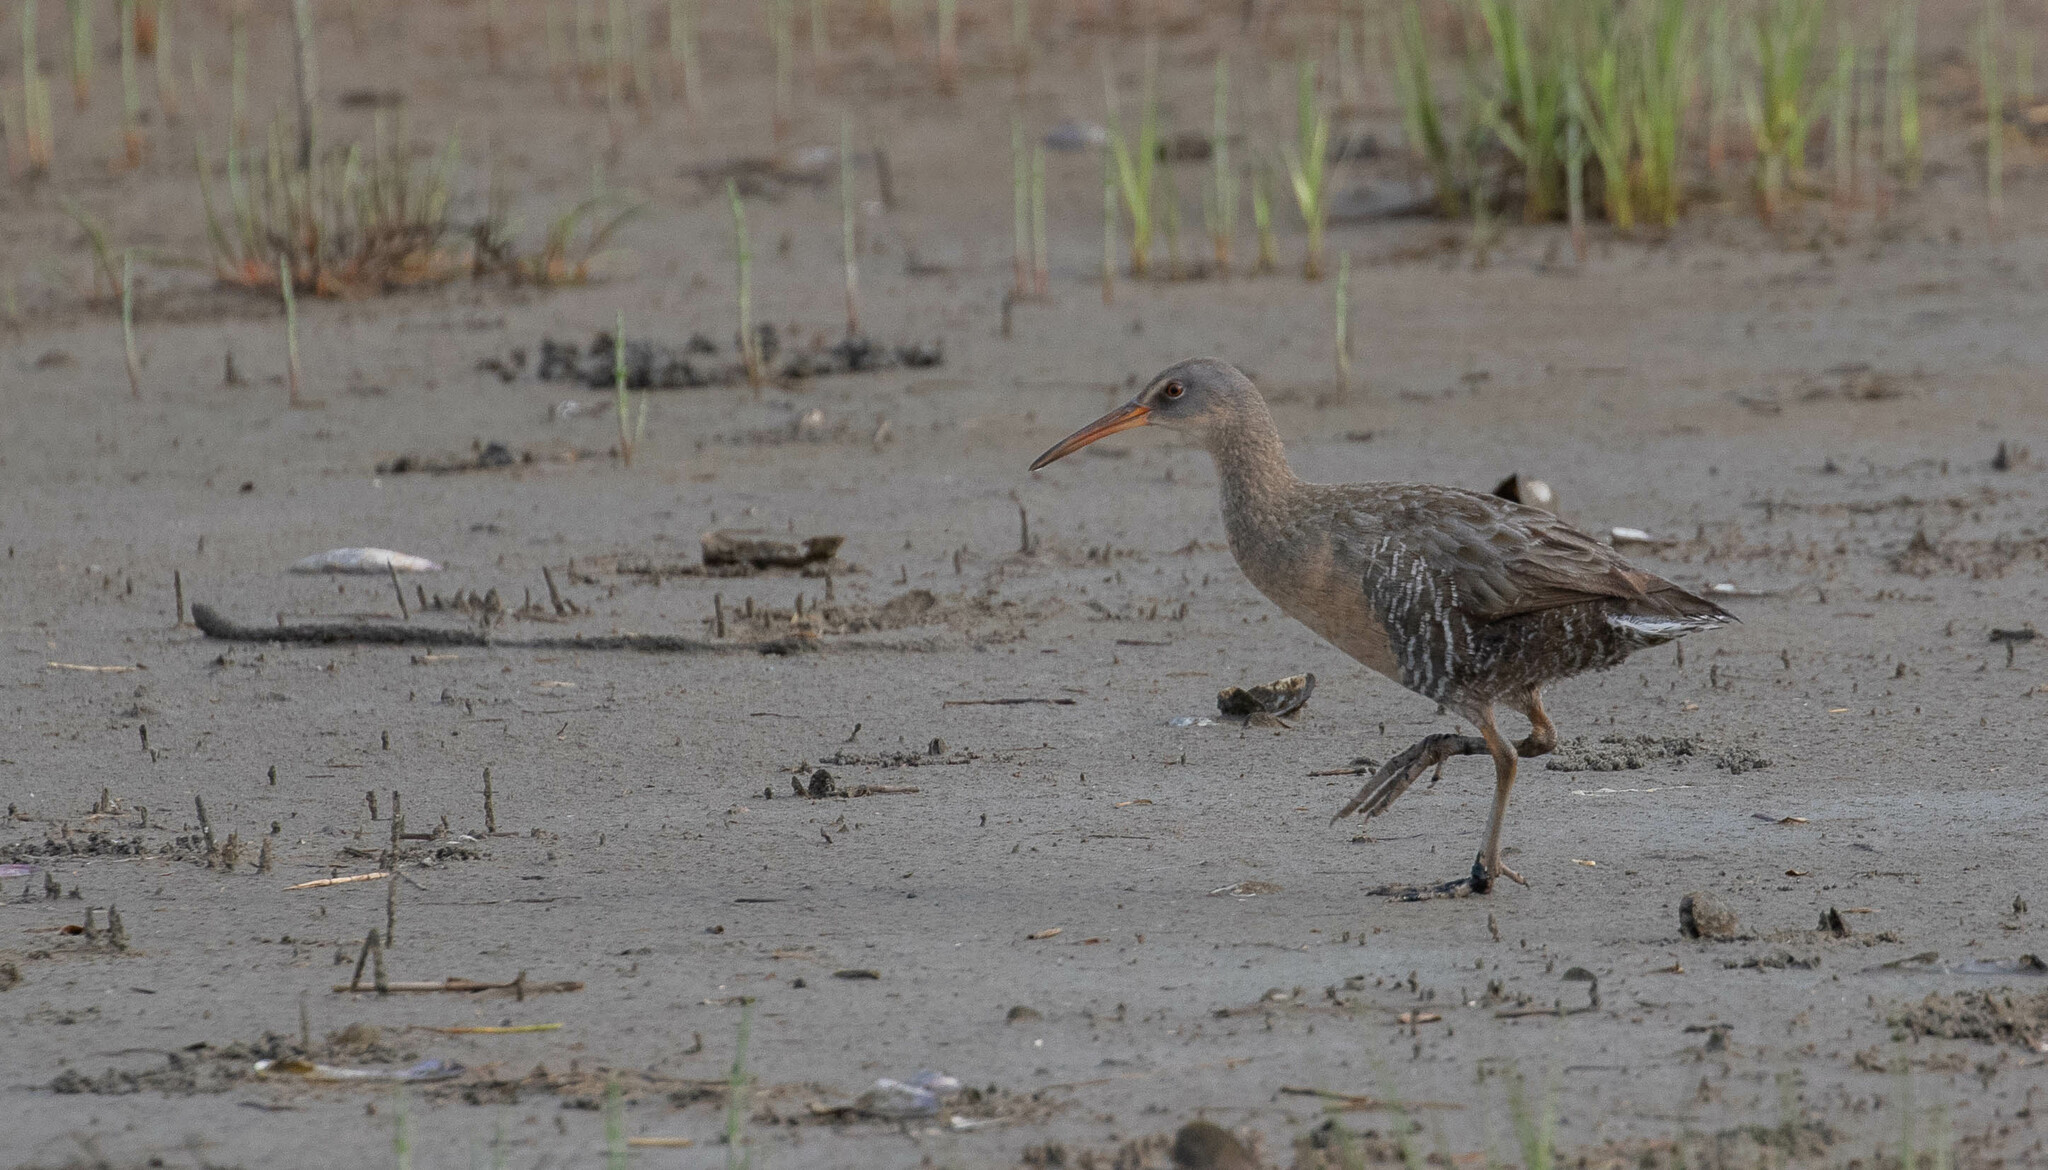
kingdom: Animalia
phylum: Chordata
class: Aves
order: Gruiformes
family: Rallidae
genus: Rallus
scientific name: Rallus crepitans
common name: Clapper rail
